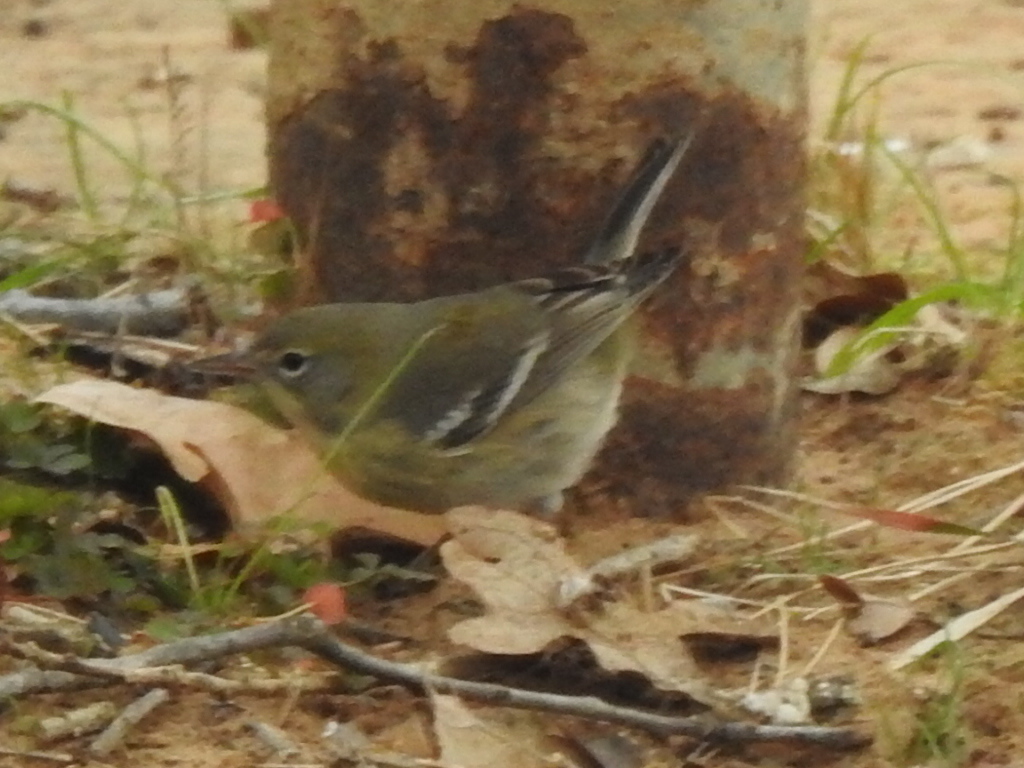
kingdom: Animalia
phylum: Chordata
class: Aves
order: Passeriformes
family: Parulidae
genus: Setophaga
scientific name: Setophaga pinus
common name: Pine warbler
